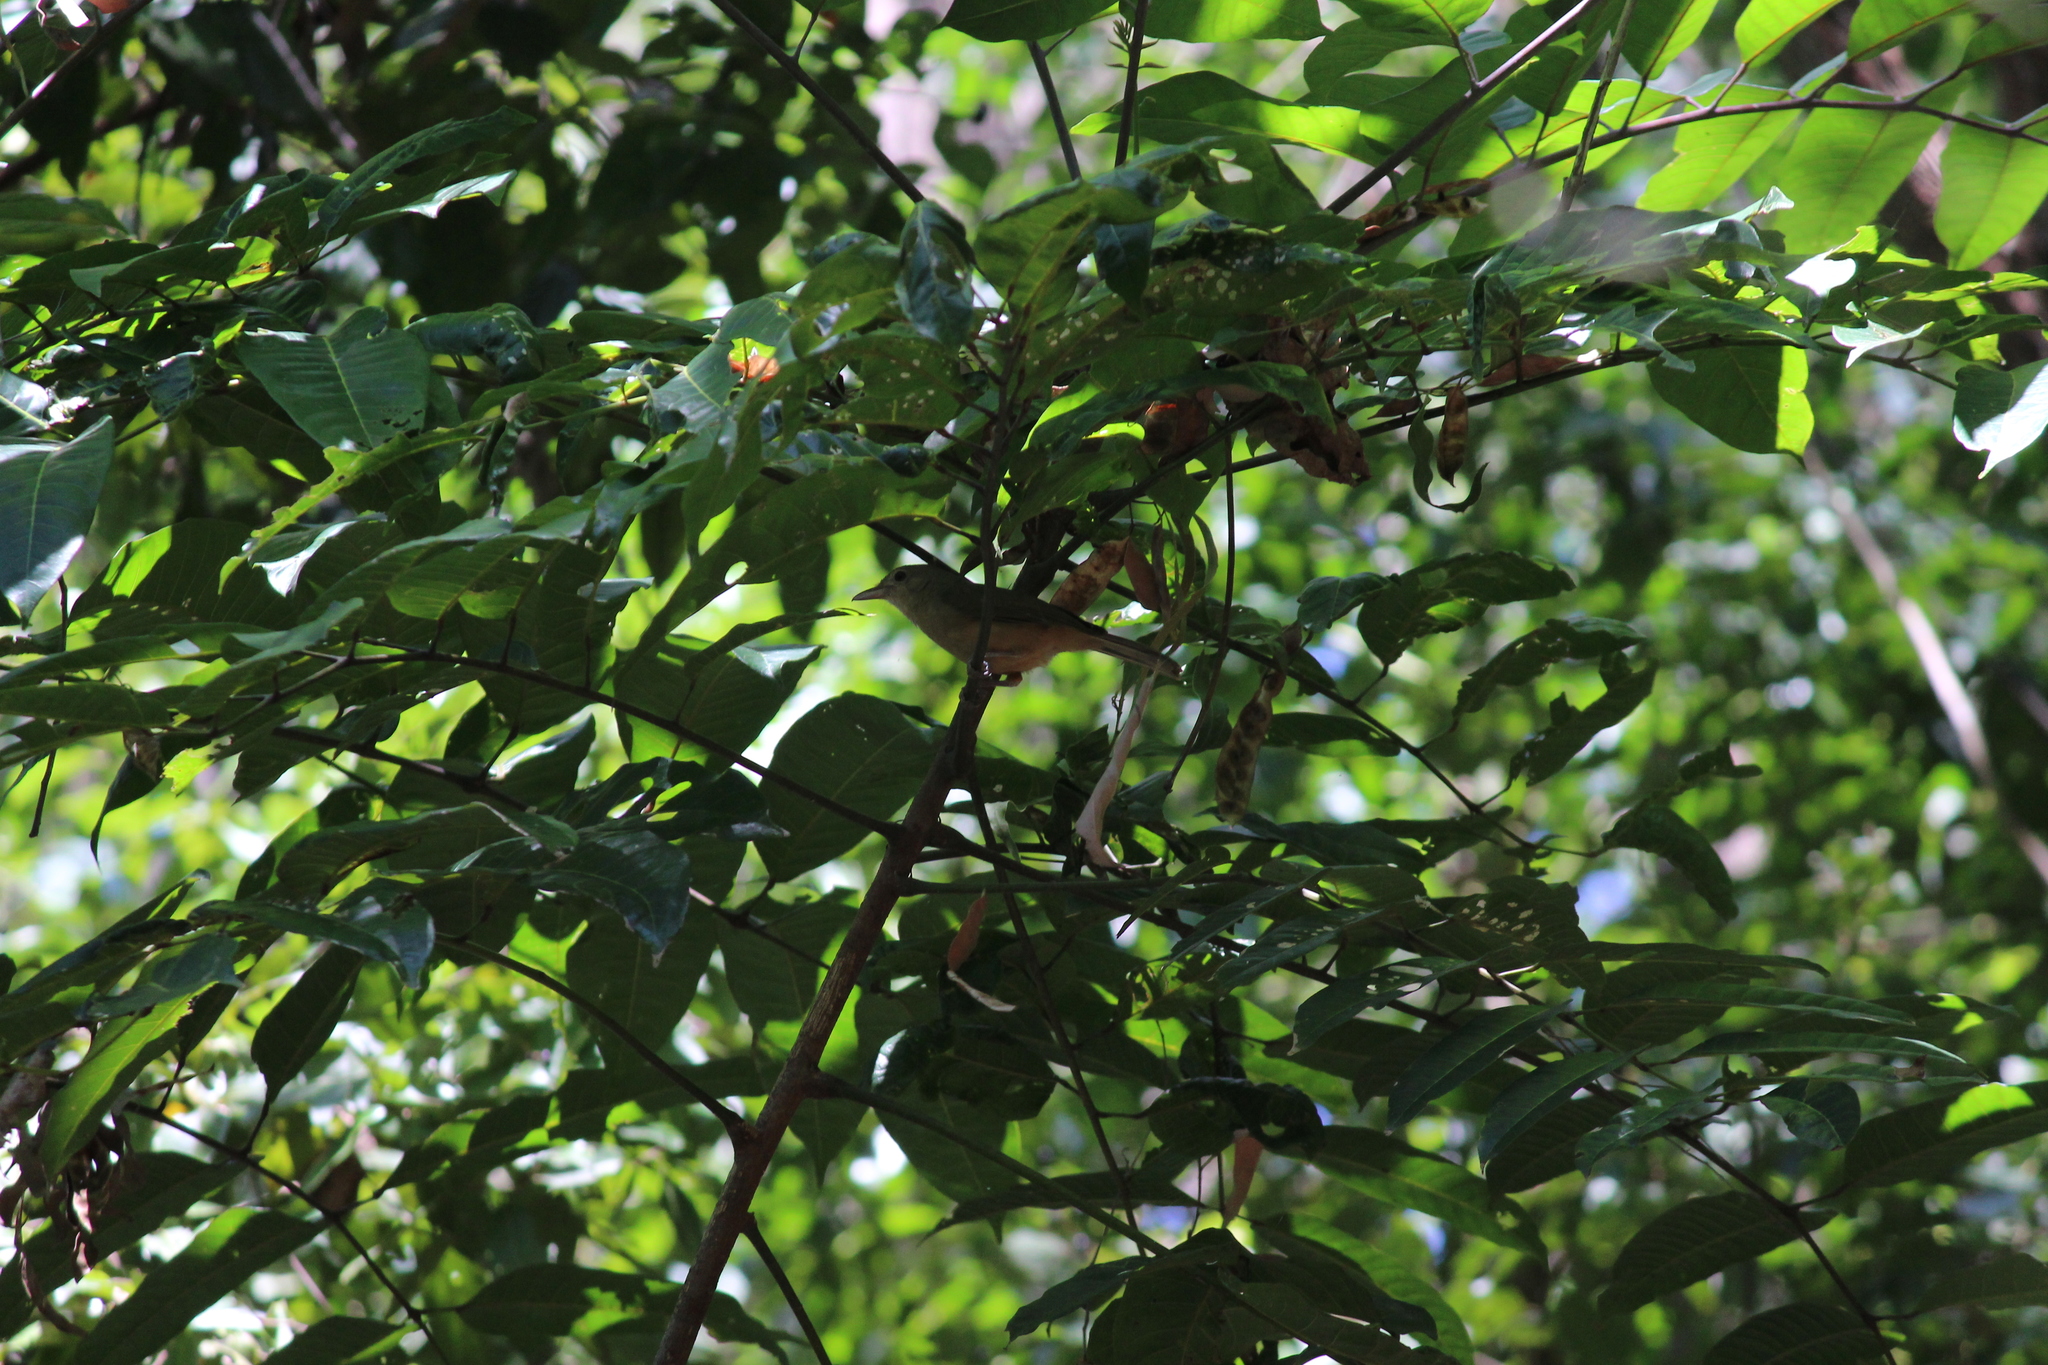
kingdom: Animalia
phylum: Chordata
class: Aves
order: Passeriformes
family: Pachycephalidae
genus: Colluricincla
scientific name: Colluricincla rufogaster
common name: Rufous shrikethrush
